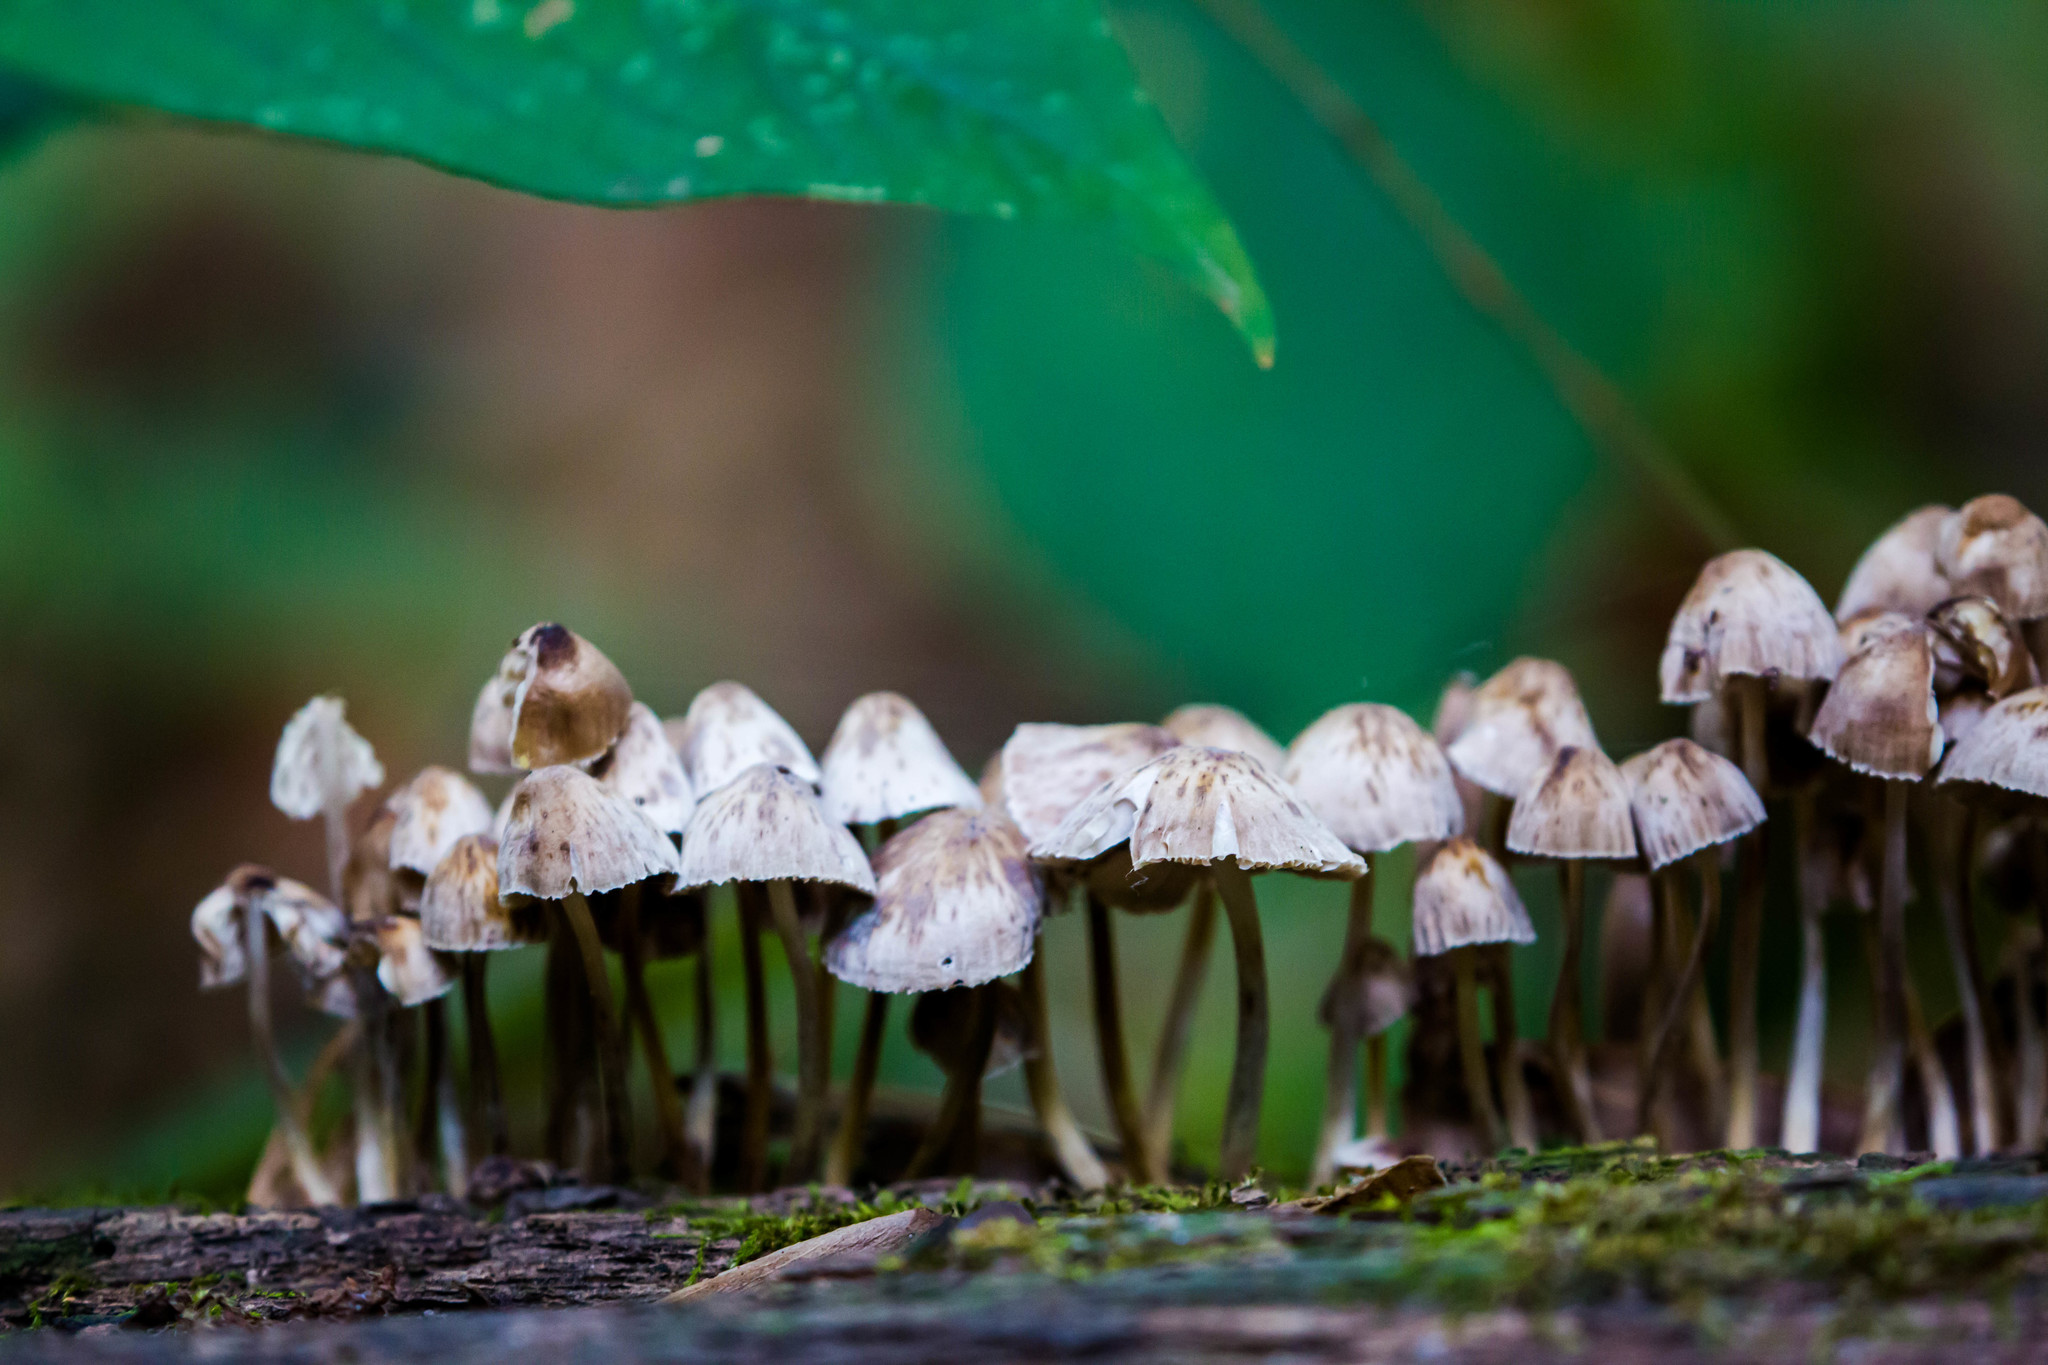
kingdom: Fungi
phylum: Basidiomycota
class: Agaricomycetes
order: Agaricales
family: Mycenaceae
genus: Mycena
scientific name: Mycena galericulata
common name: Bonnet mycena
